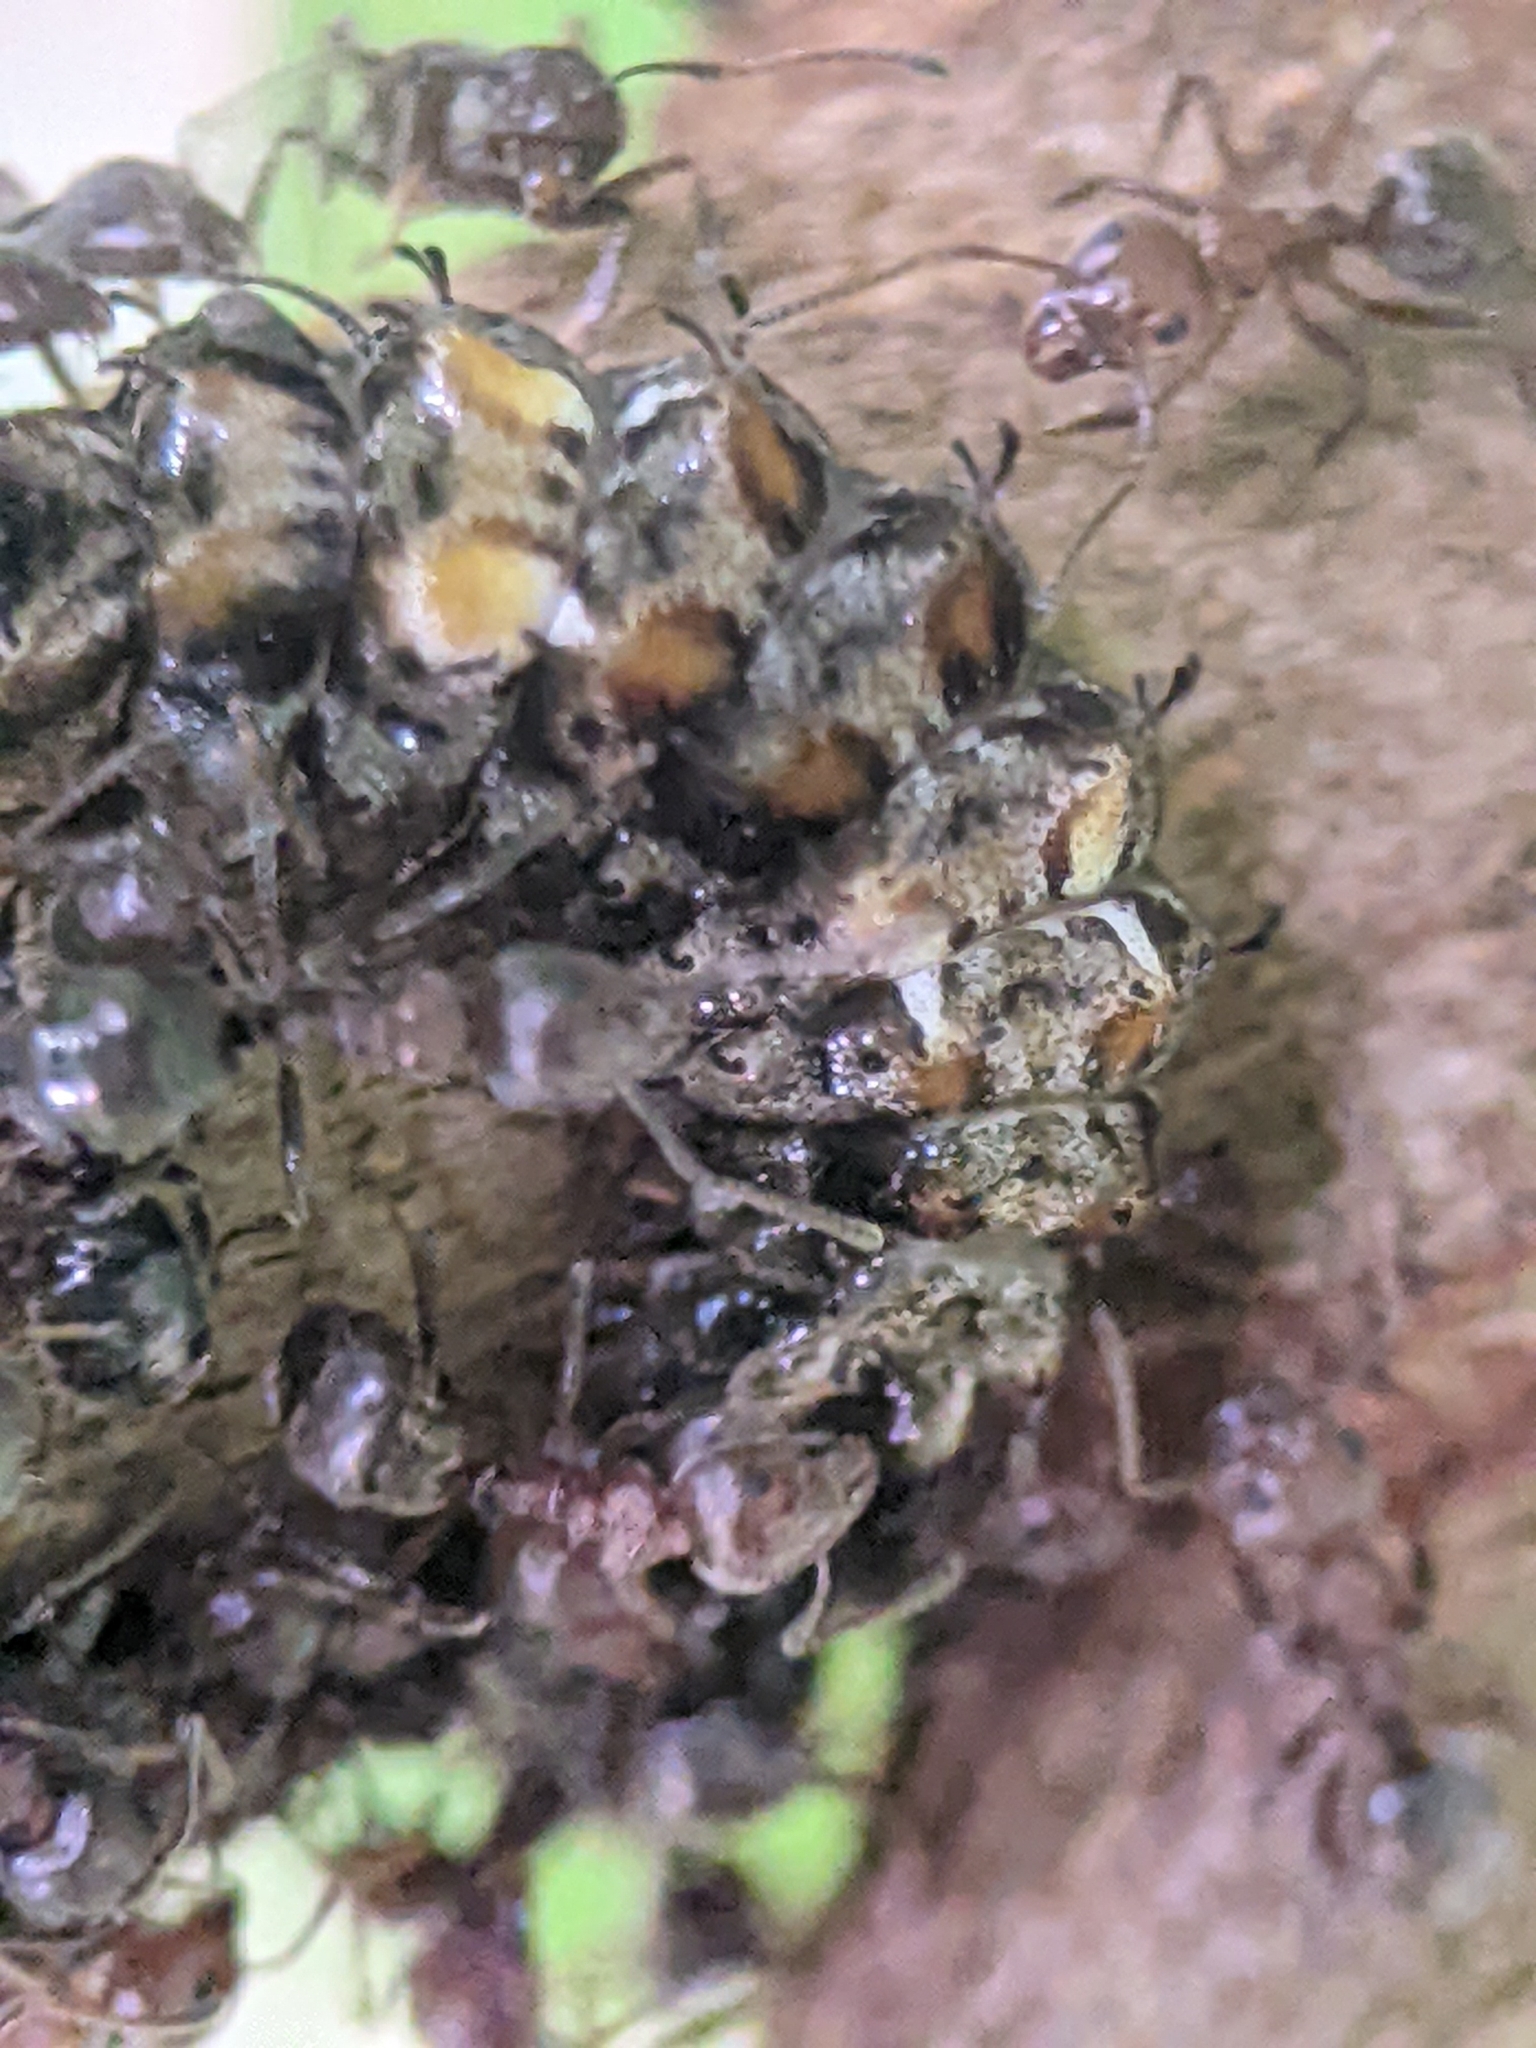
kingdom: Animalia
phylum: Arthropoda
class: Insecta
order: Lepidoptera
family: Lycaenidae
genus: Logania
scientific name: Logania marmorata
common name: Pale mottle
